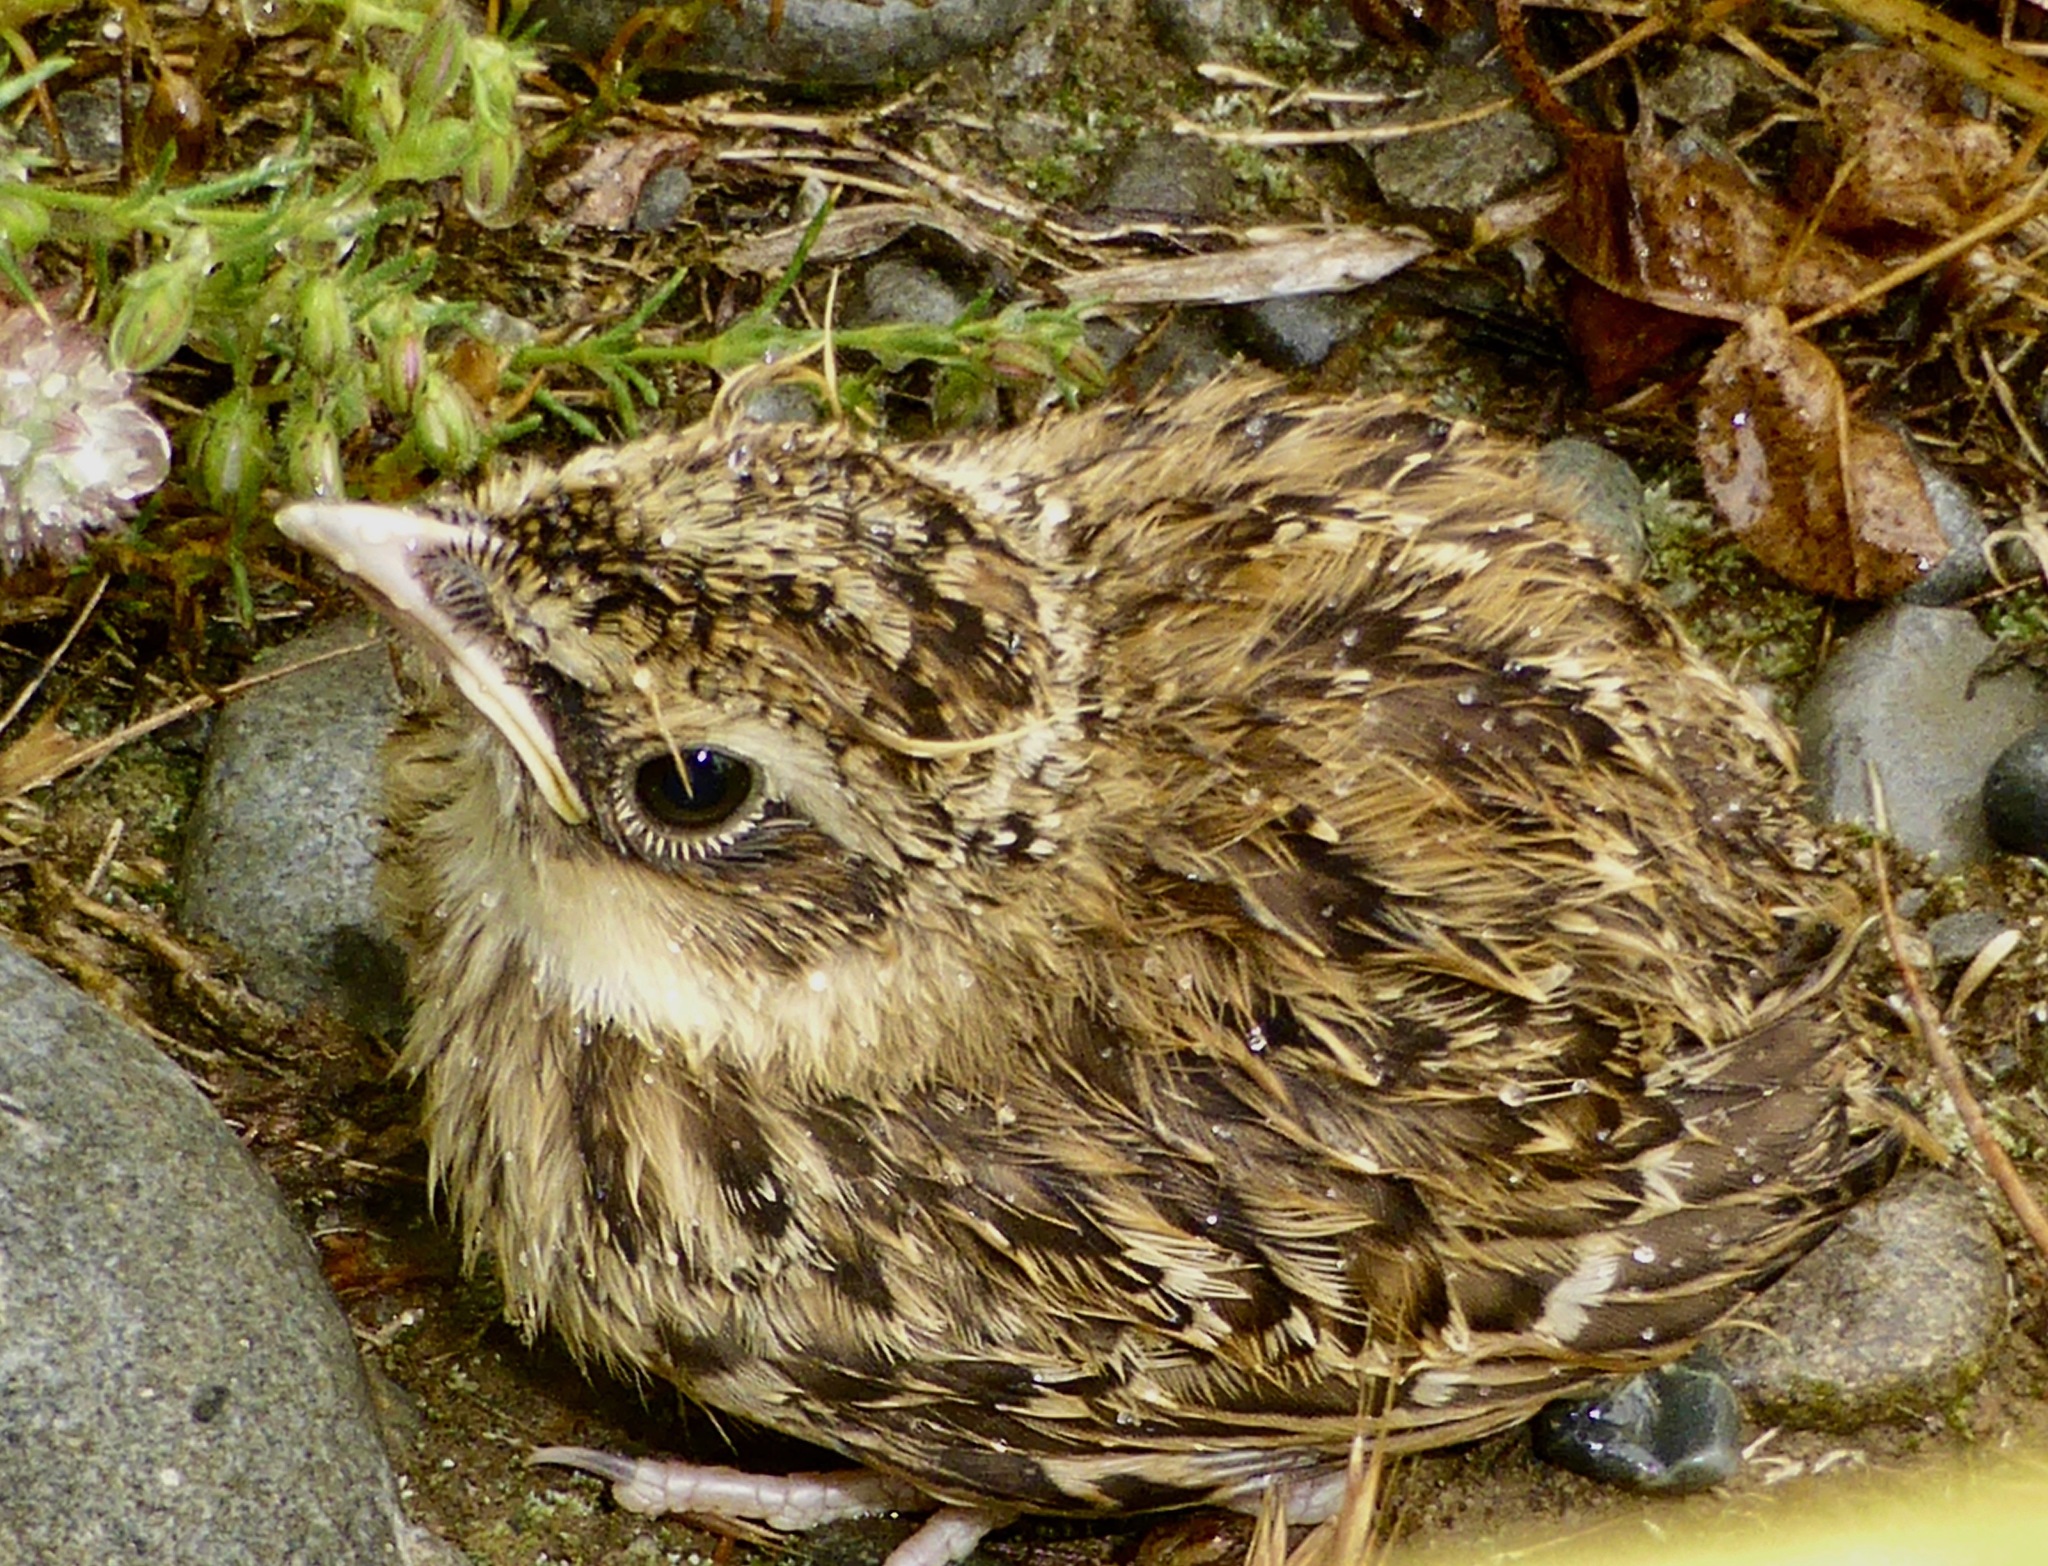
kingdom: Animalia
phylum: Chordata
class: Aves
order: Passeriformes
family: Alaudidae
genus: Alauda
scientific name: Alauda arvensis
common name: Eurasian skylark
